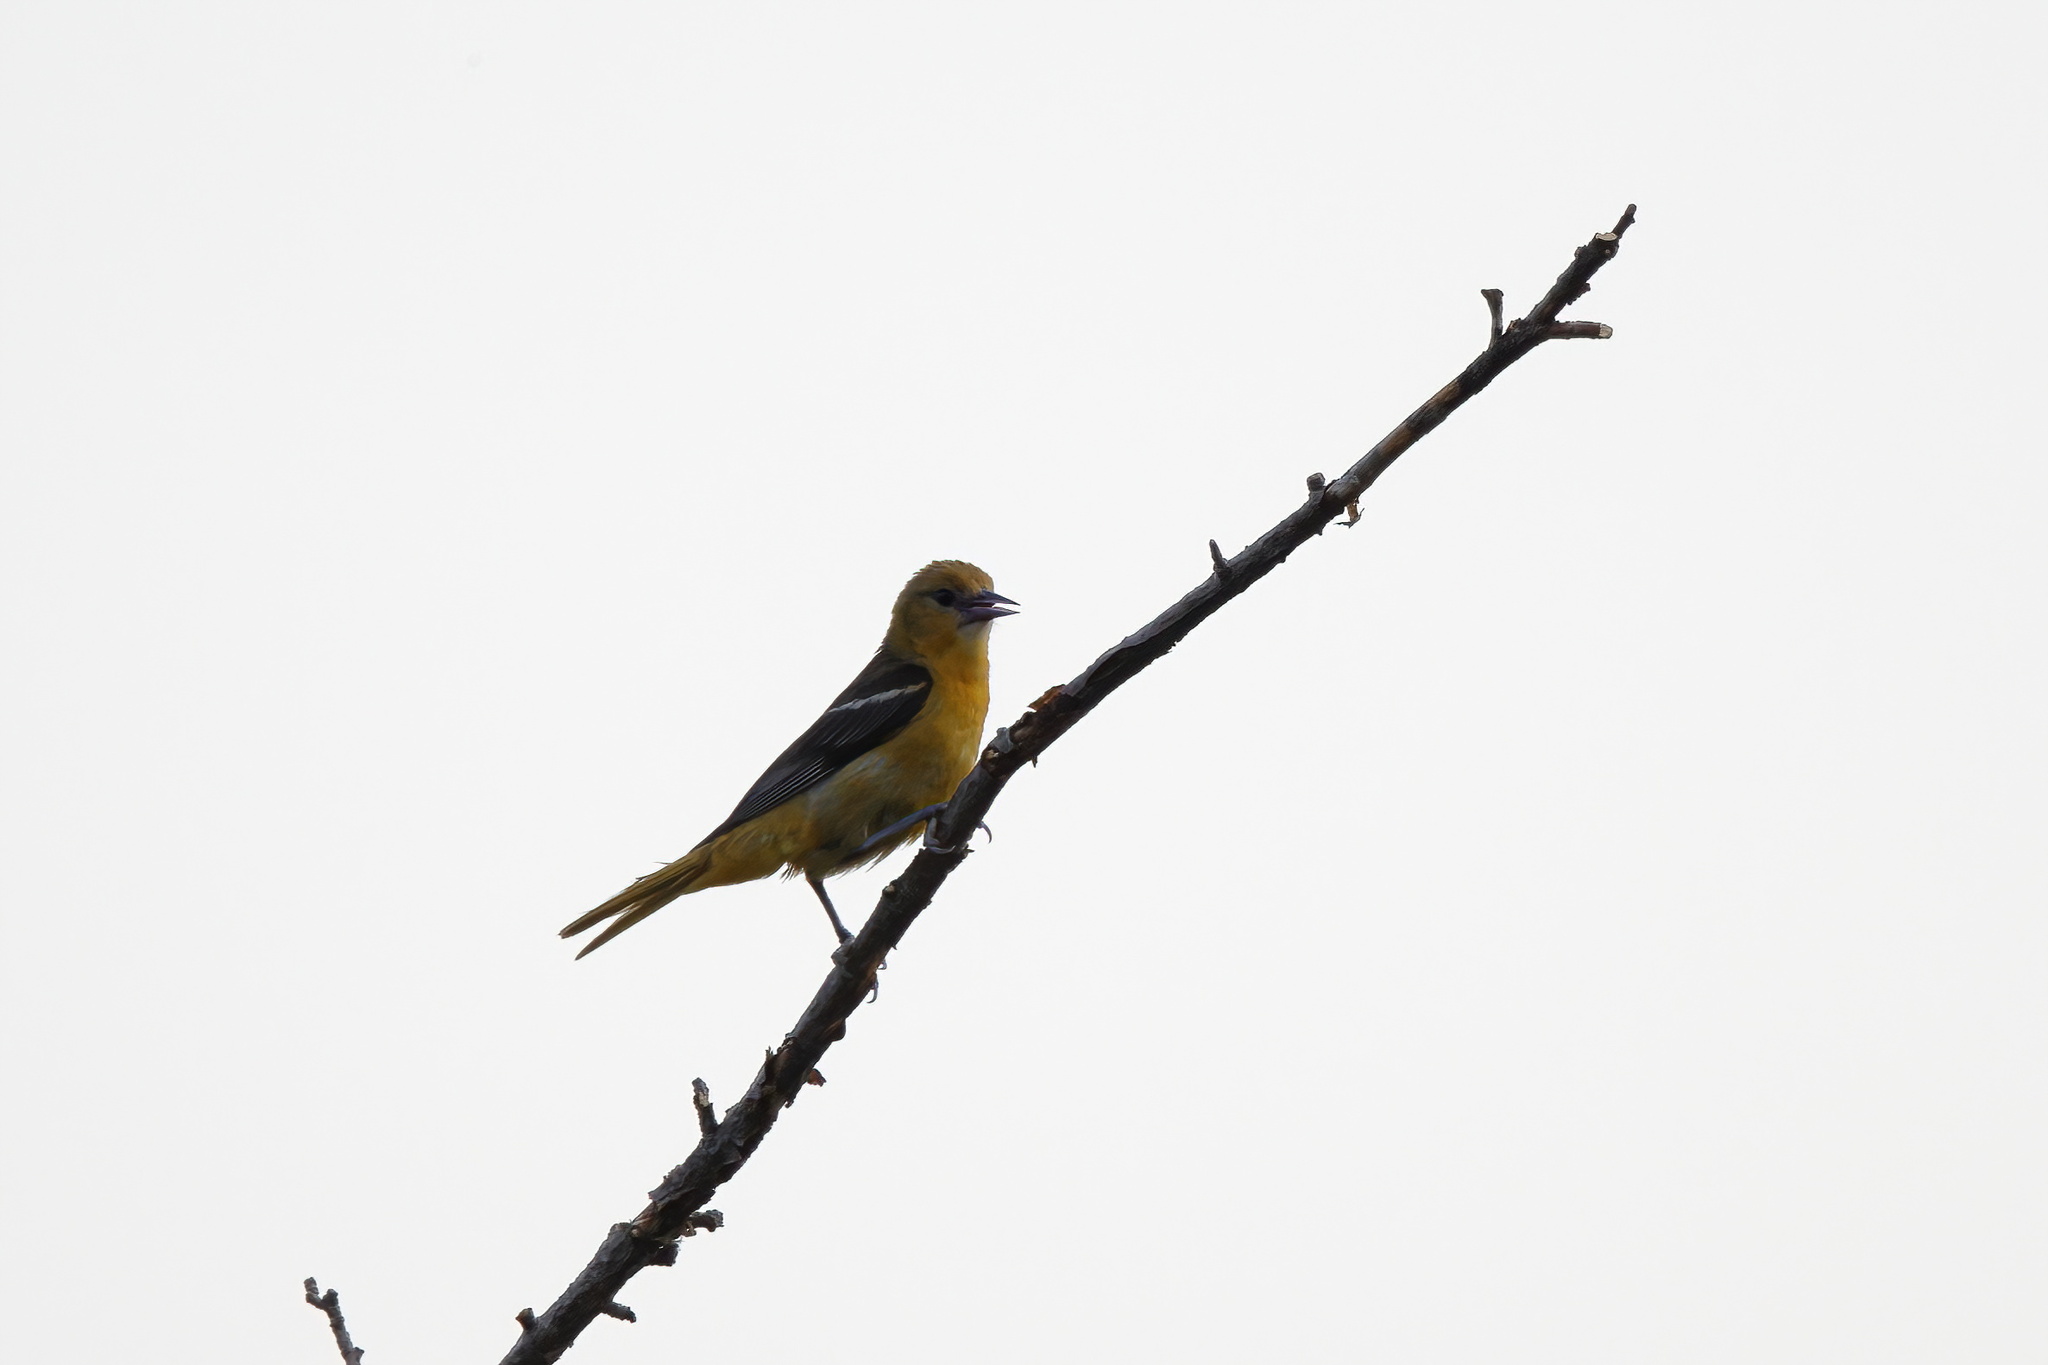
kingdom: Animalia
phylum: Chordata
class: Aves
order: Passeriformes
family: Icteridae
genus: Icterus
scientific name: Icterus galbula
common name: Baltimore oriole
